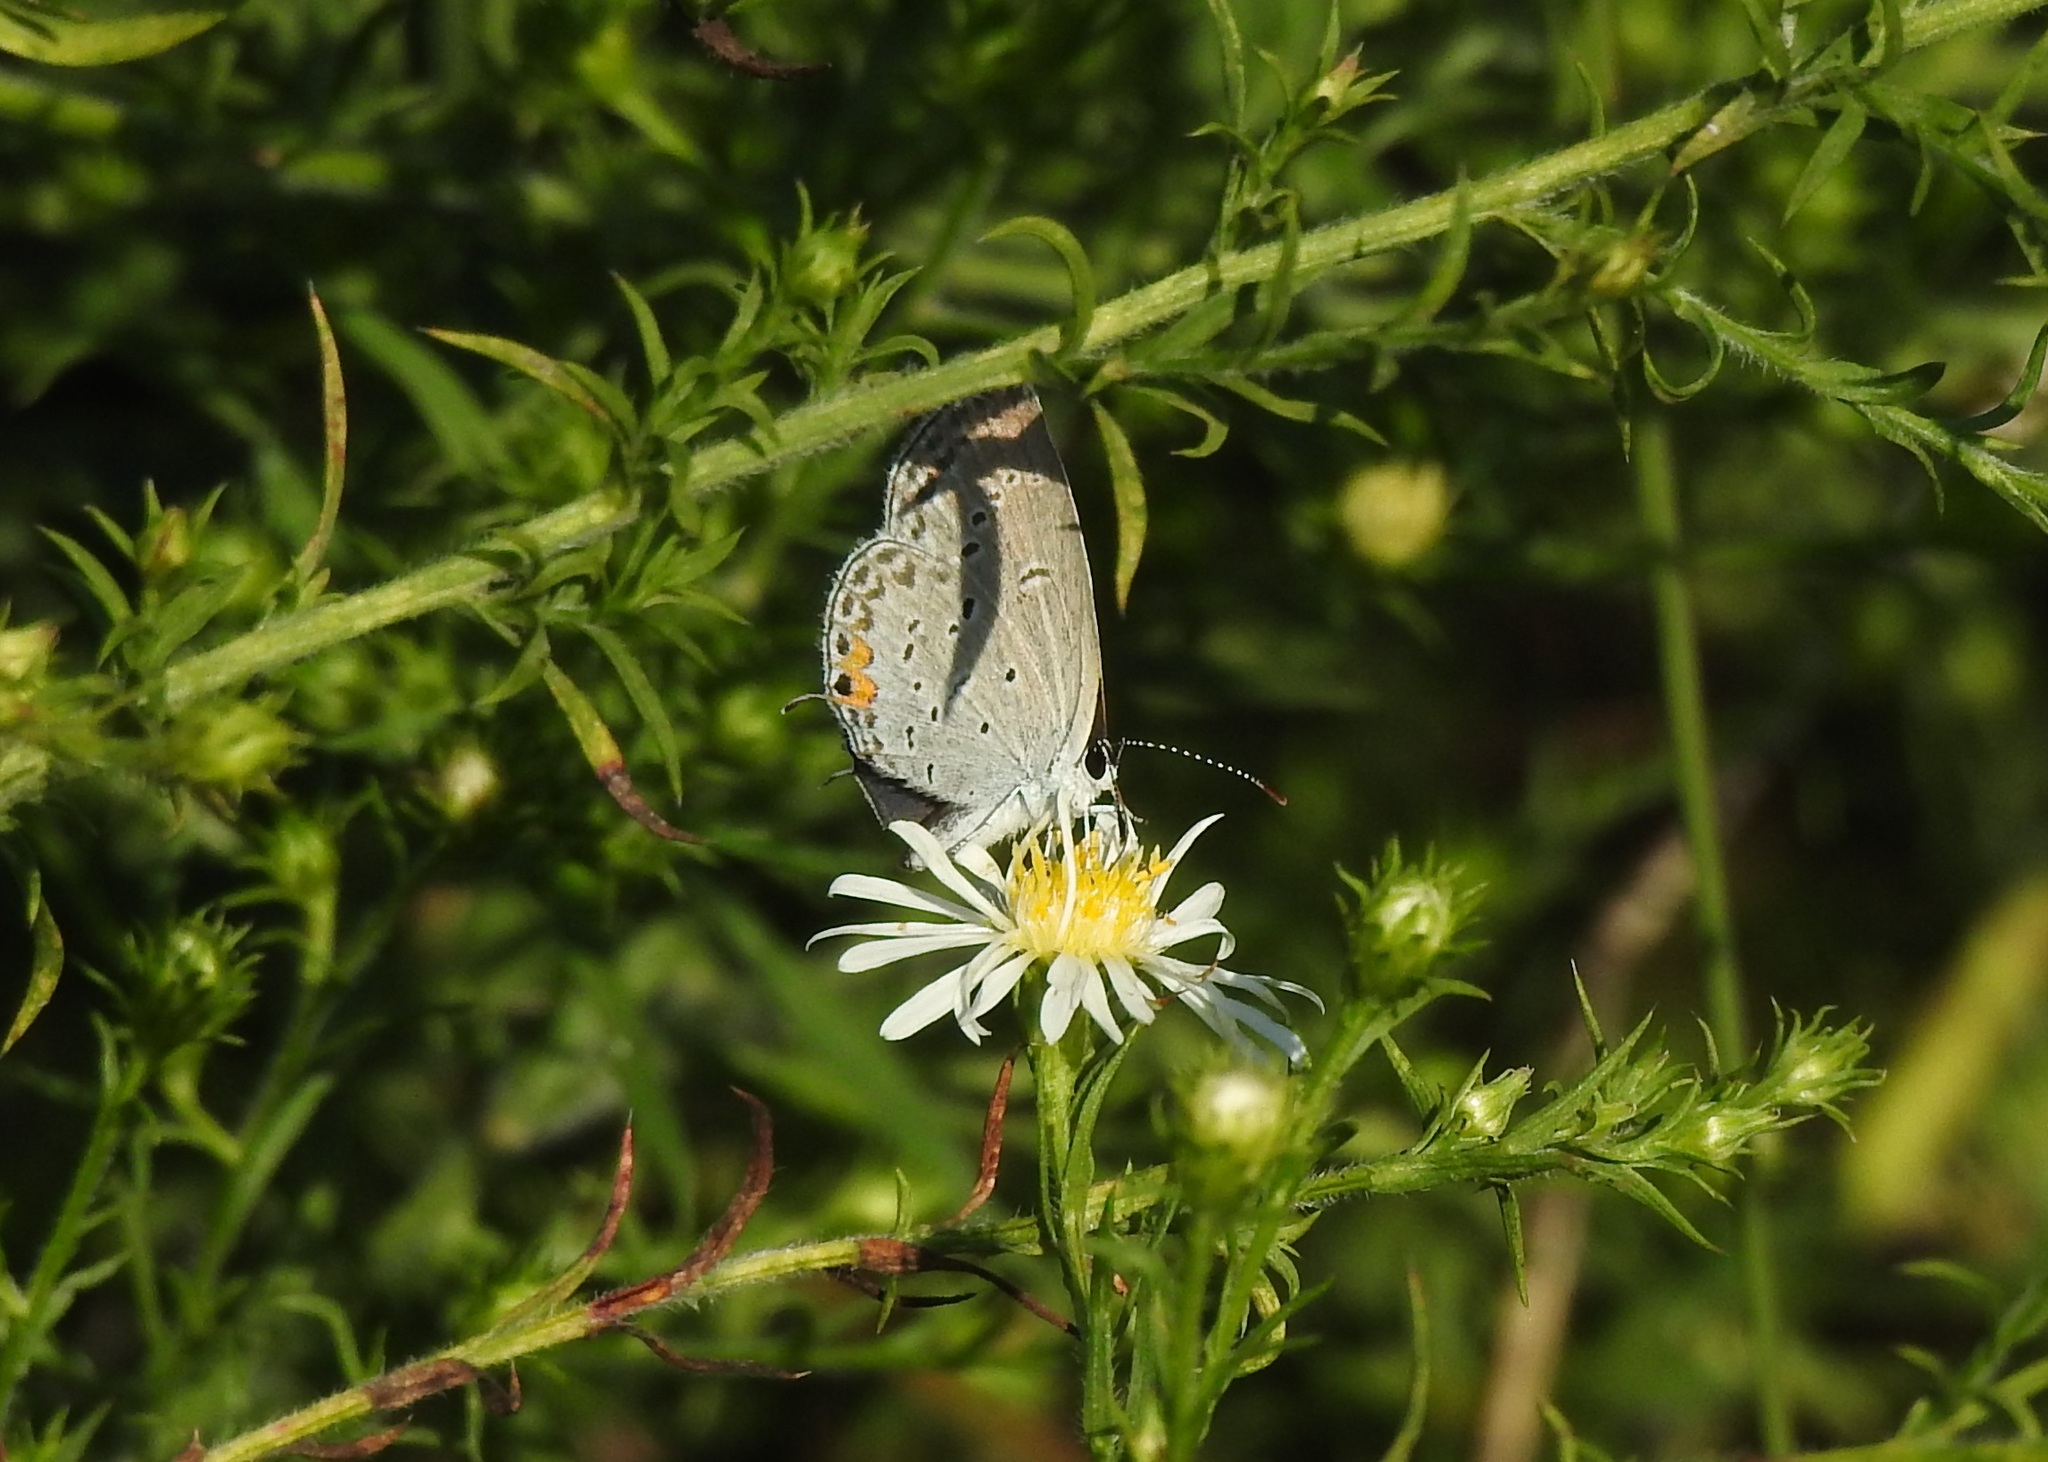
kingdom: Animalia
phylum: Arthropoda
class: Insecta
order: Lepidoptera
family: Lycaenidae
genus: Elkalyce
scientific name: Elkalyce comyntas
